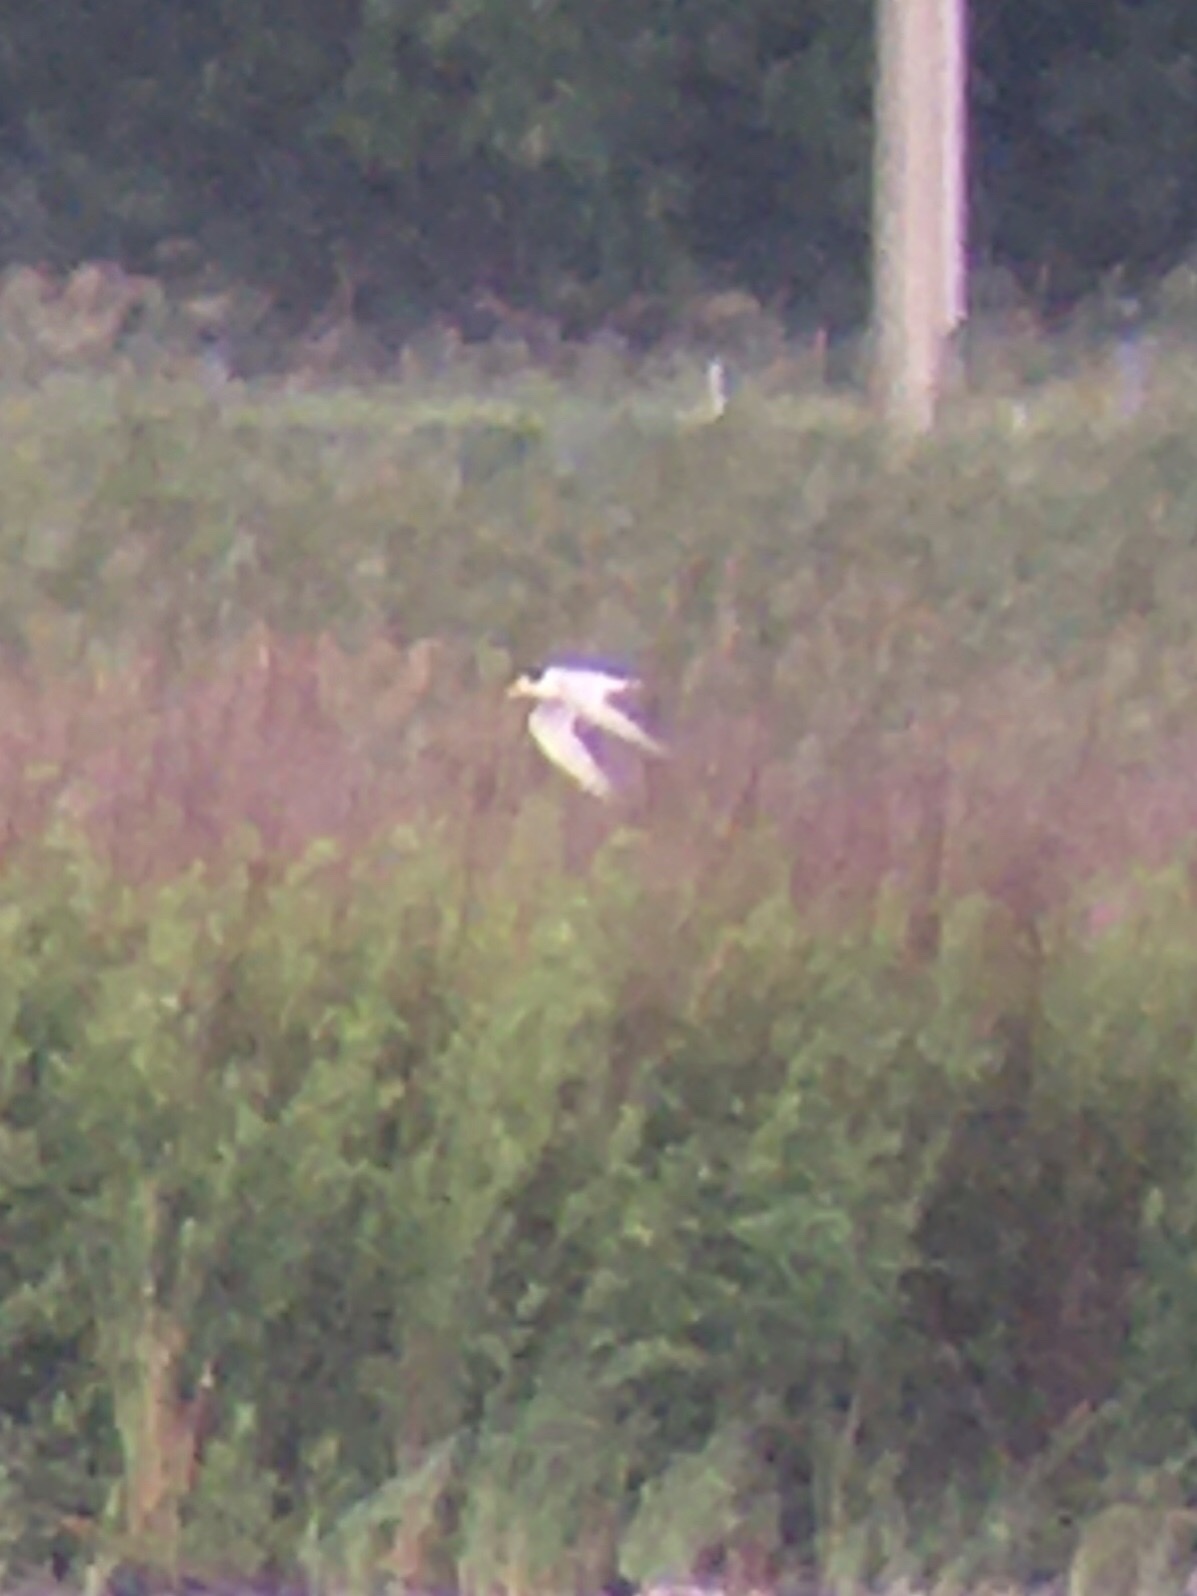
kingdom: Animalia
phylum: Chordata
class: Aves
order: Charadriiformes
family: Laridae
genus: Sternula
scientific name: Sternula antillarum
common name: Least tern
